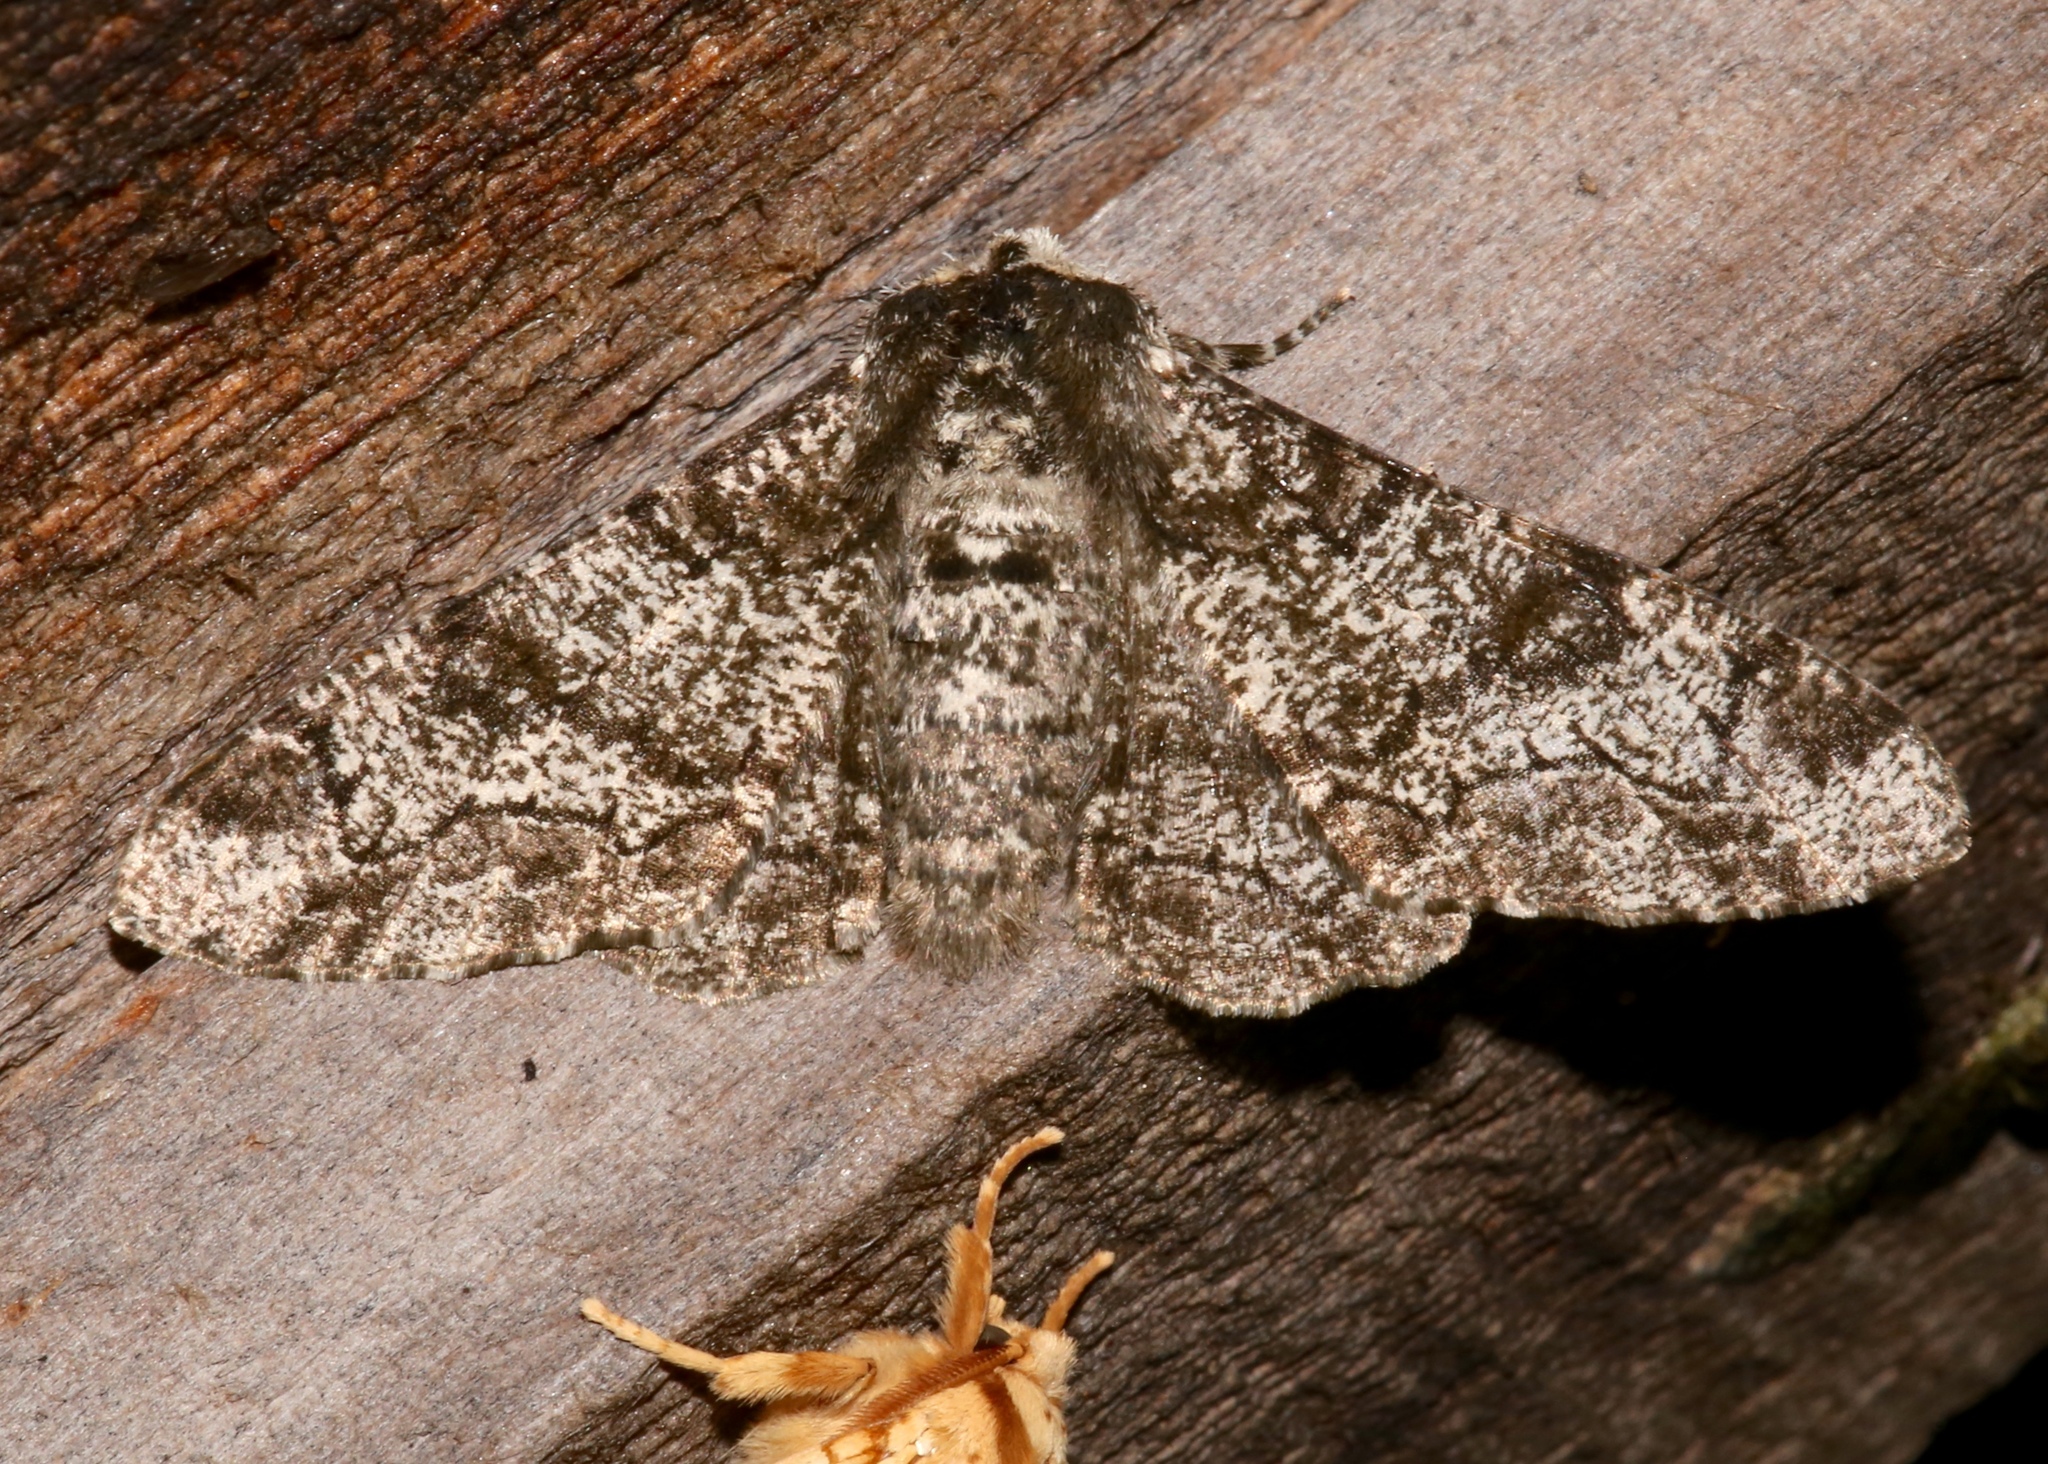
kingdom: Animalia
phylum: Arthropoda
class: Insecta
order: Lepidoptera
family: Geometridae
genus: Biston
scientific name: Biston betularia
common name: Peppered moth
